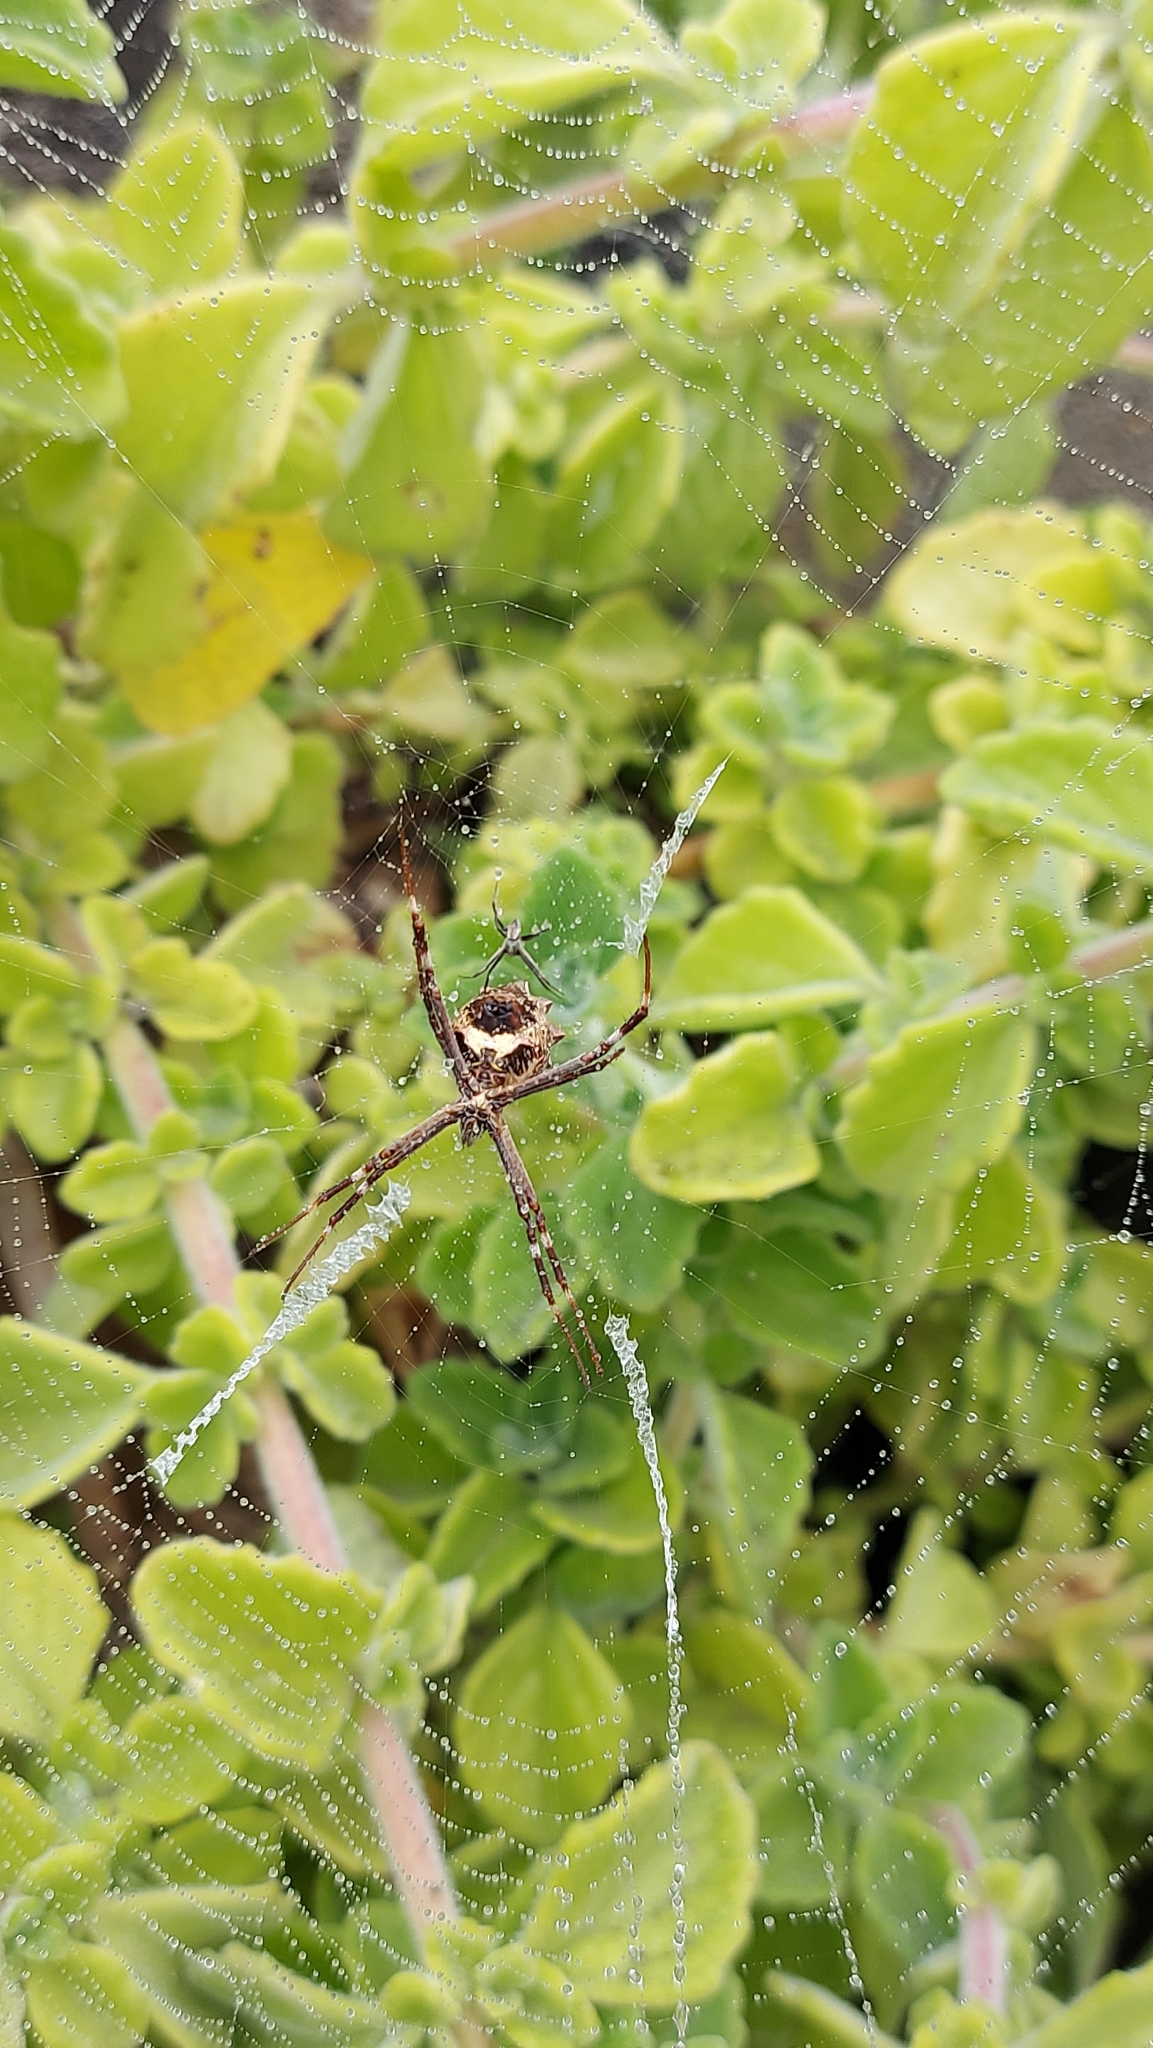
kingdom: Animalia
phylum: Arthropoda
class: Arachnida
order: Araneae
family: Araneidae
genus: Argiope
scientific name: Argiope argentata
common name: Orb weavers
